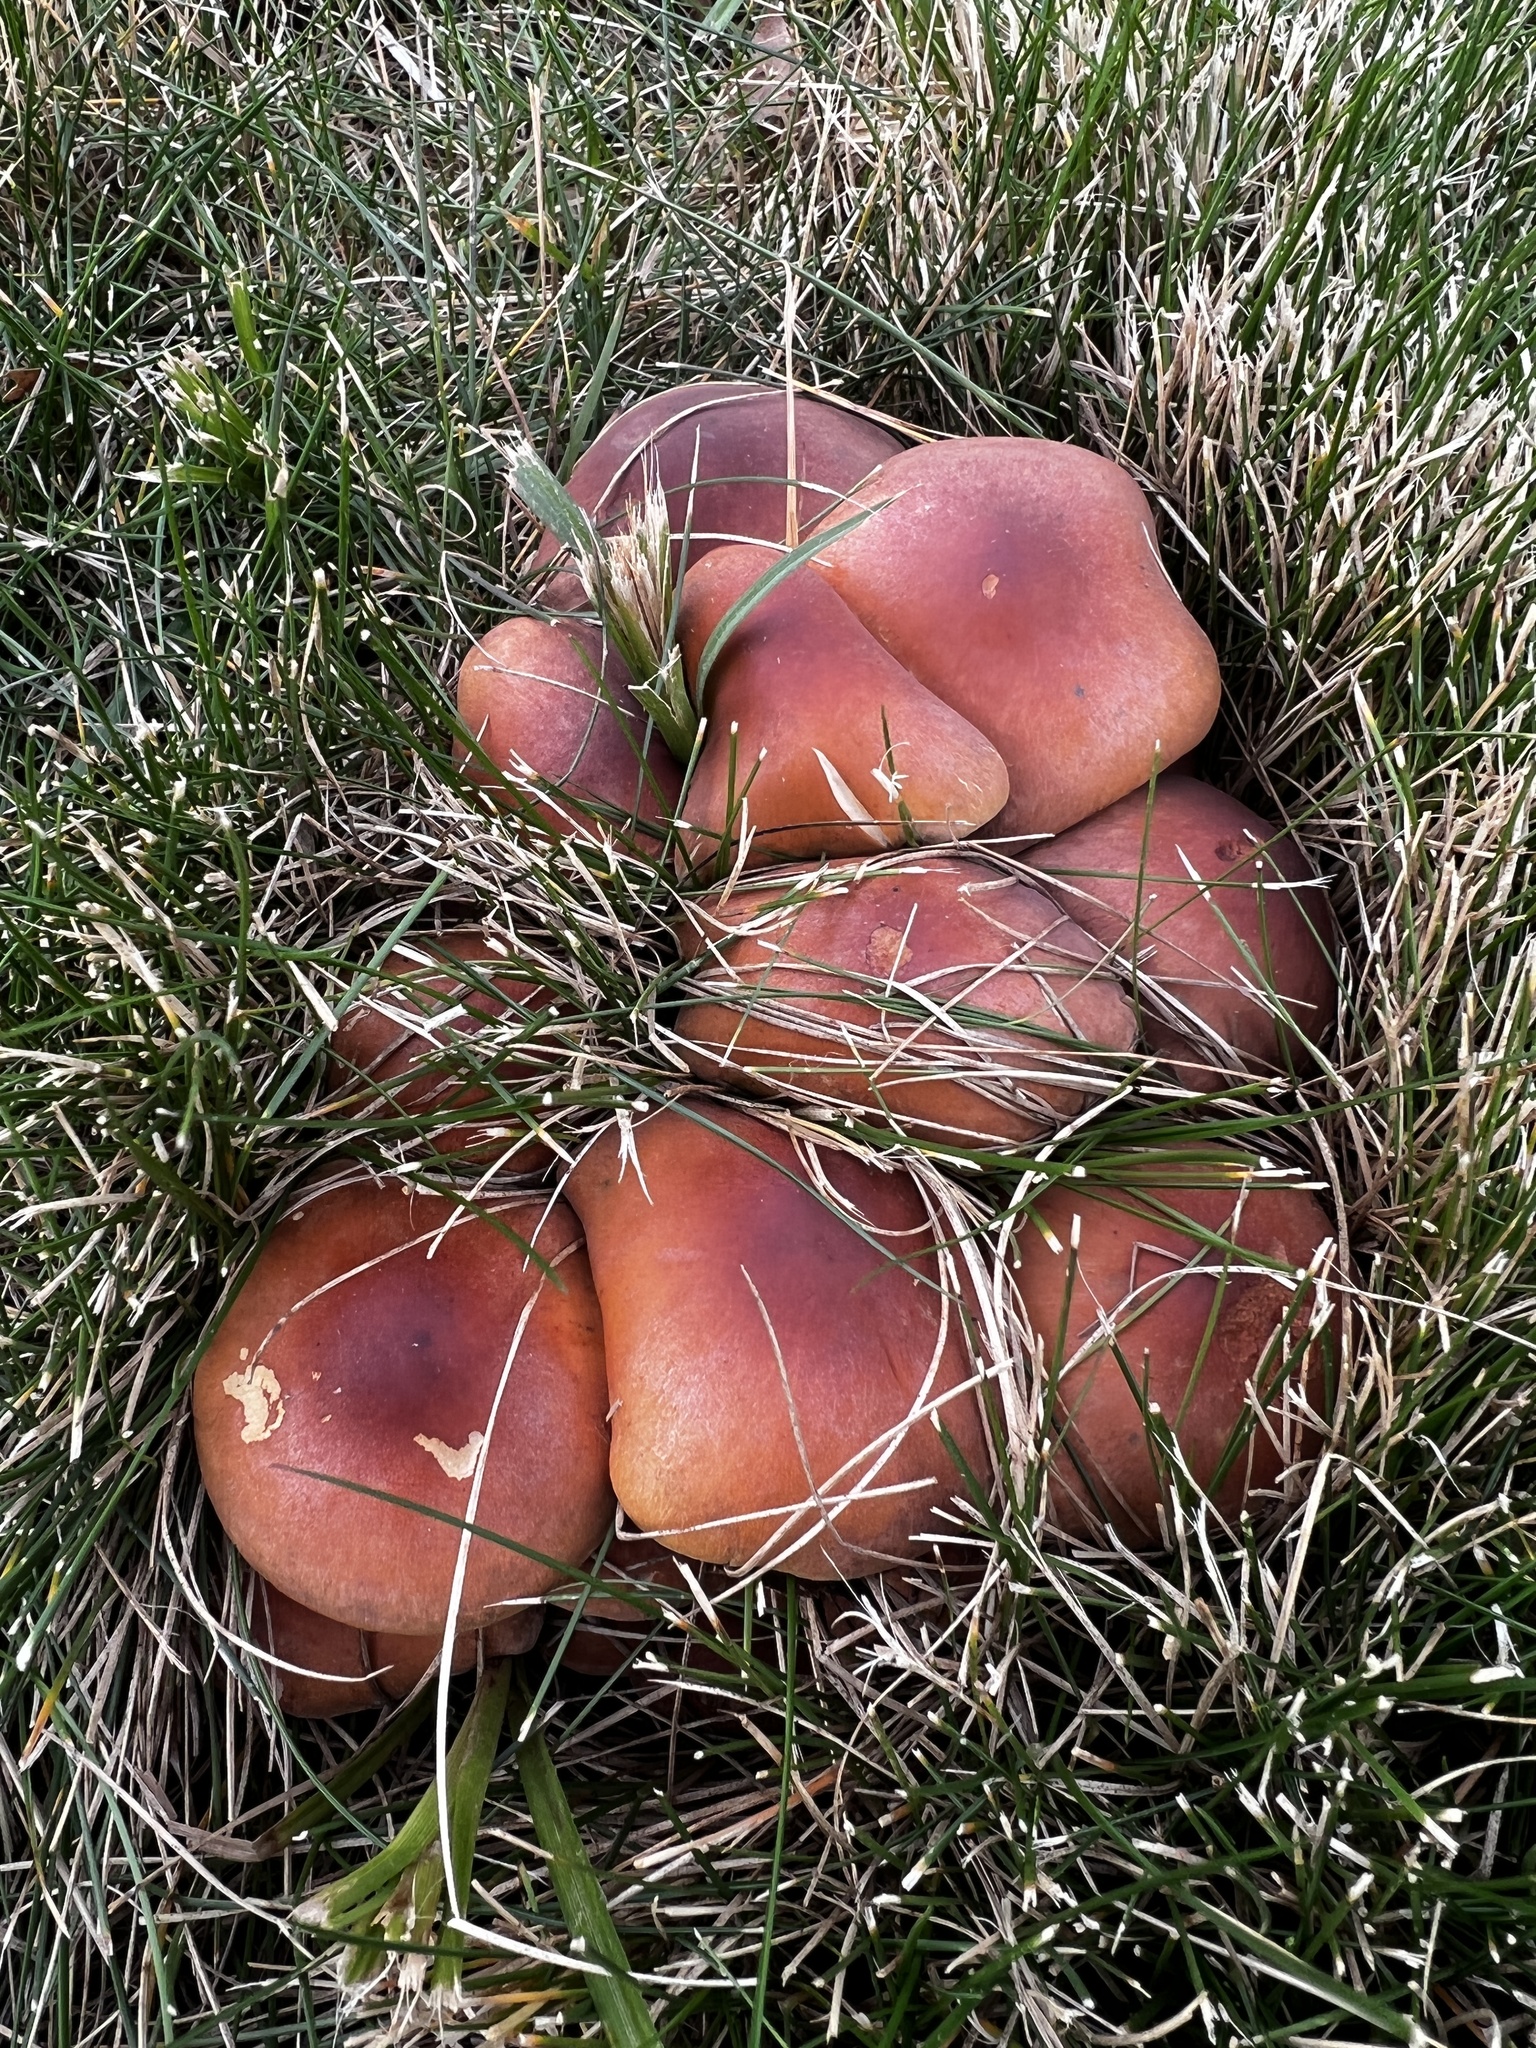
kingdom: Fungi
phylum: Basidiomycota
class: Agaricomycetes
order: Agaricales
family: Strophariaceae
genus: Hypholoma
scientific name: Hypholoma lateritium
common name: Brick caps
